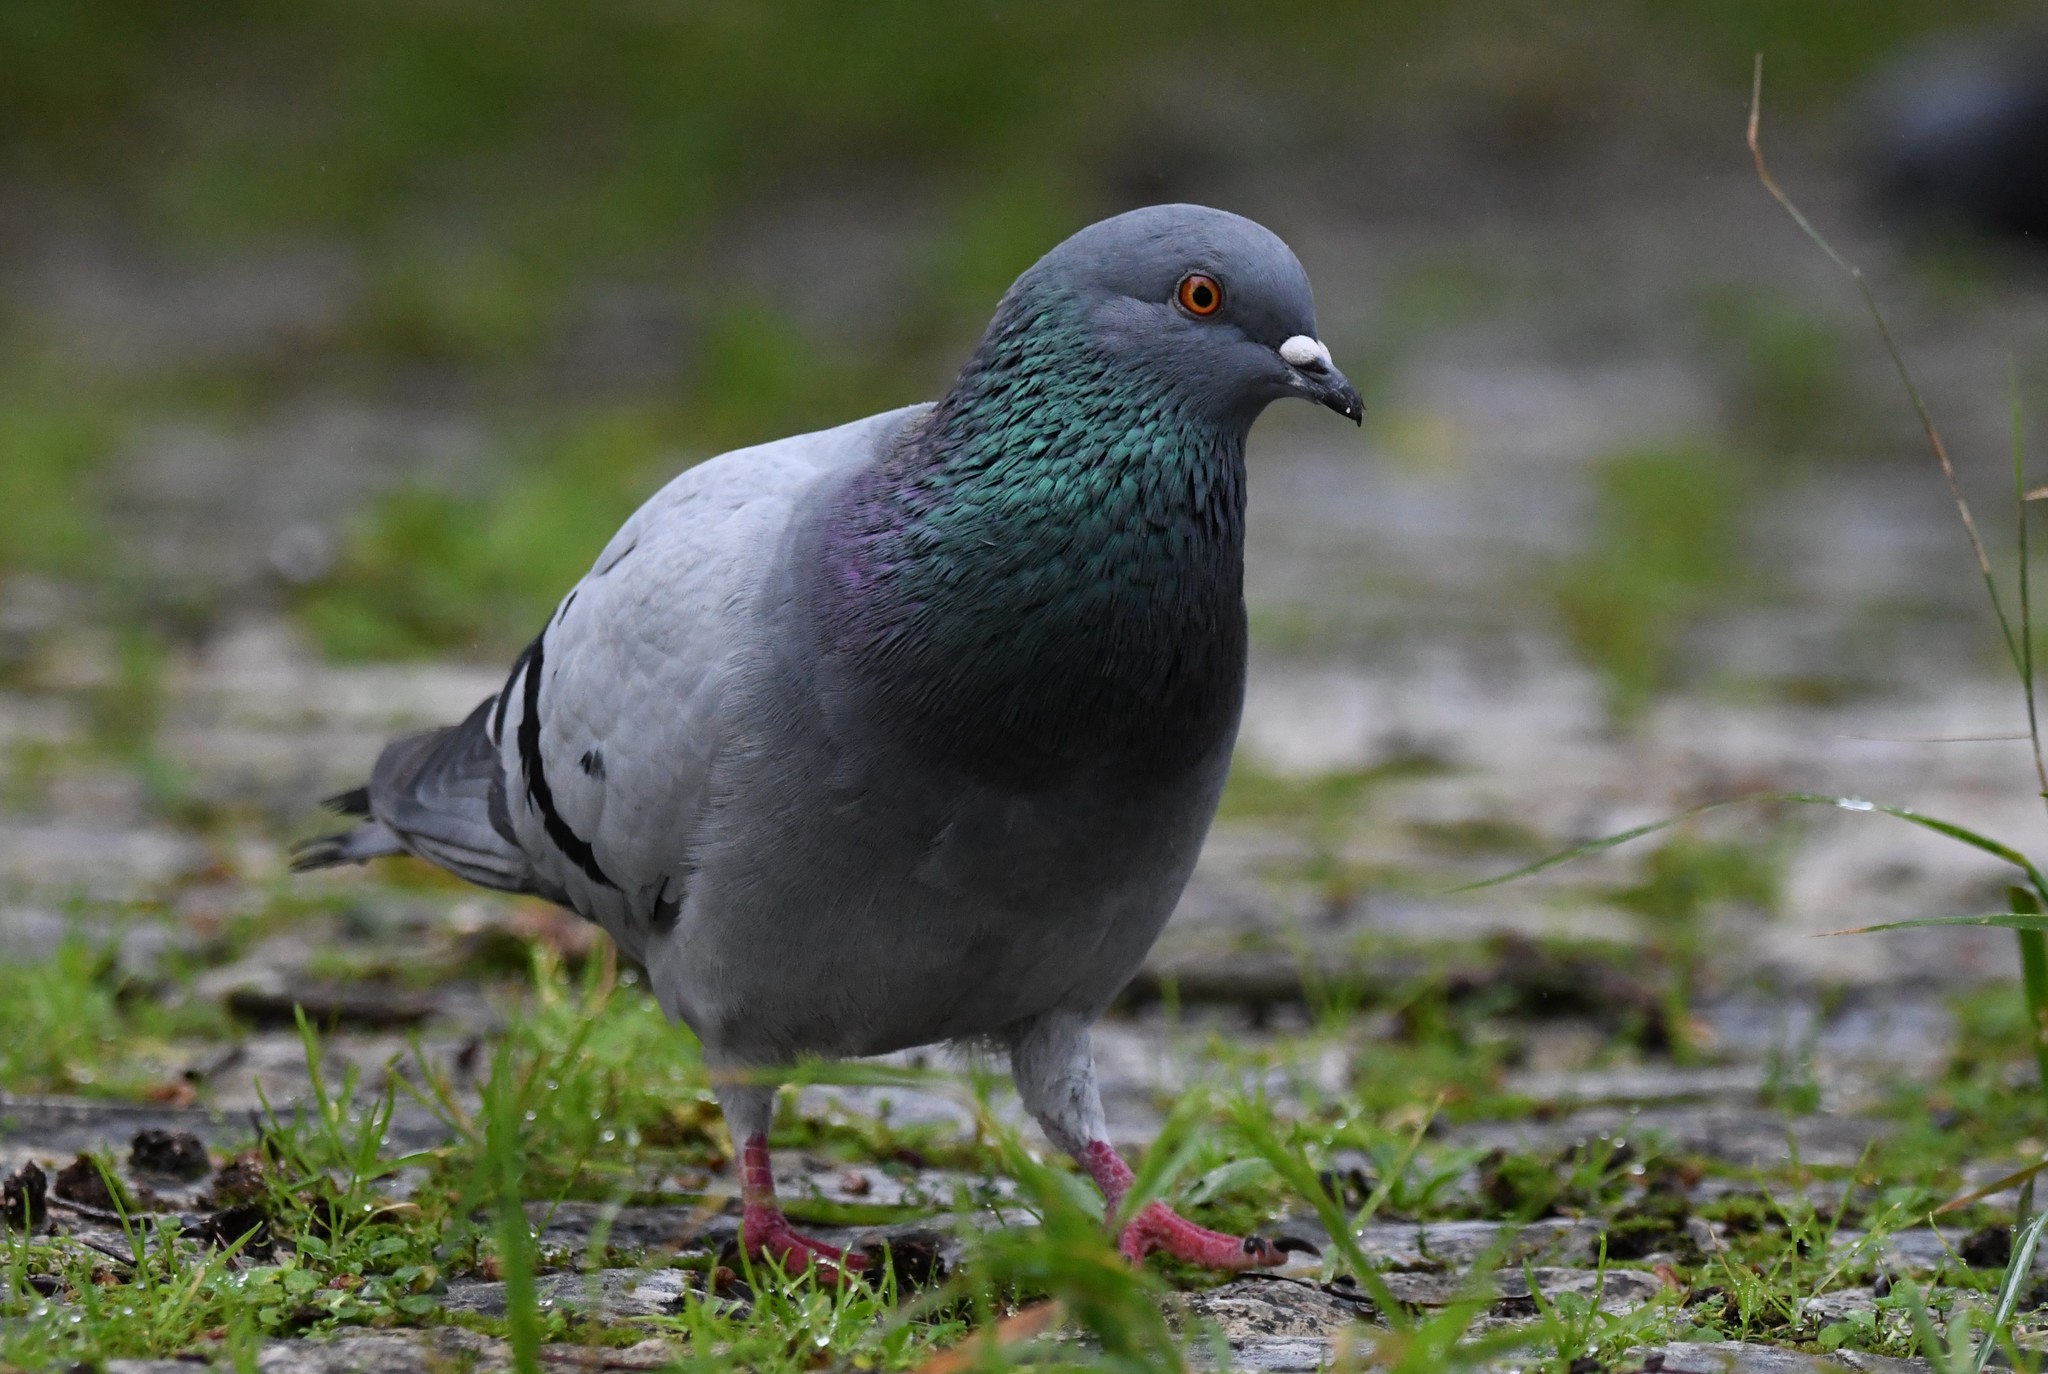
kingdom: Animalia
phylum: Chordata
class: Aves
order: Columbiformes
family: Columbidae
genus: Columba
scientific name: Columba livia
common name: Rock pigeon
